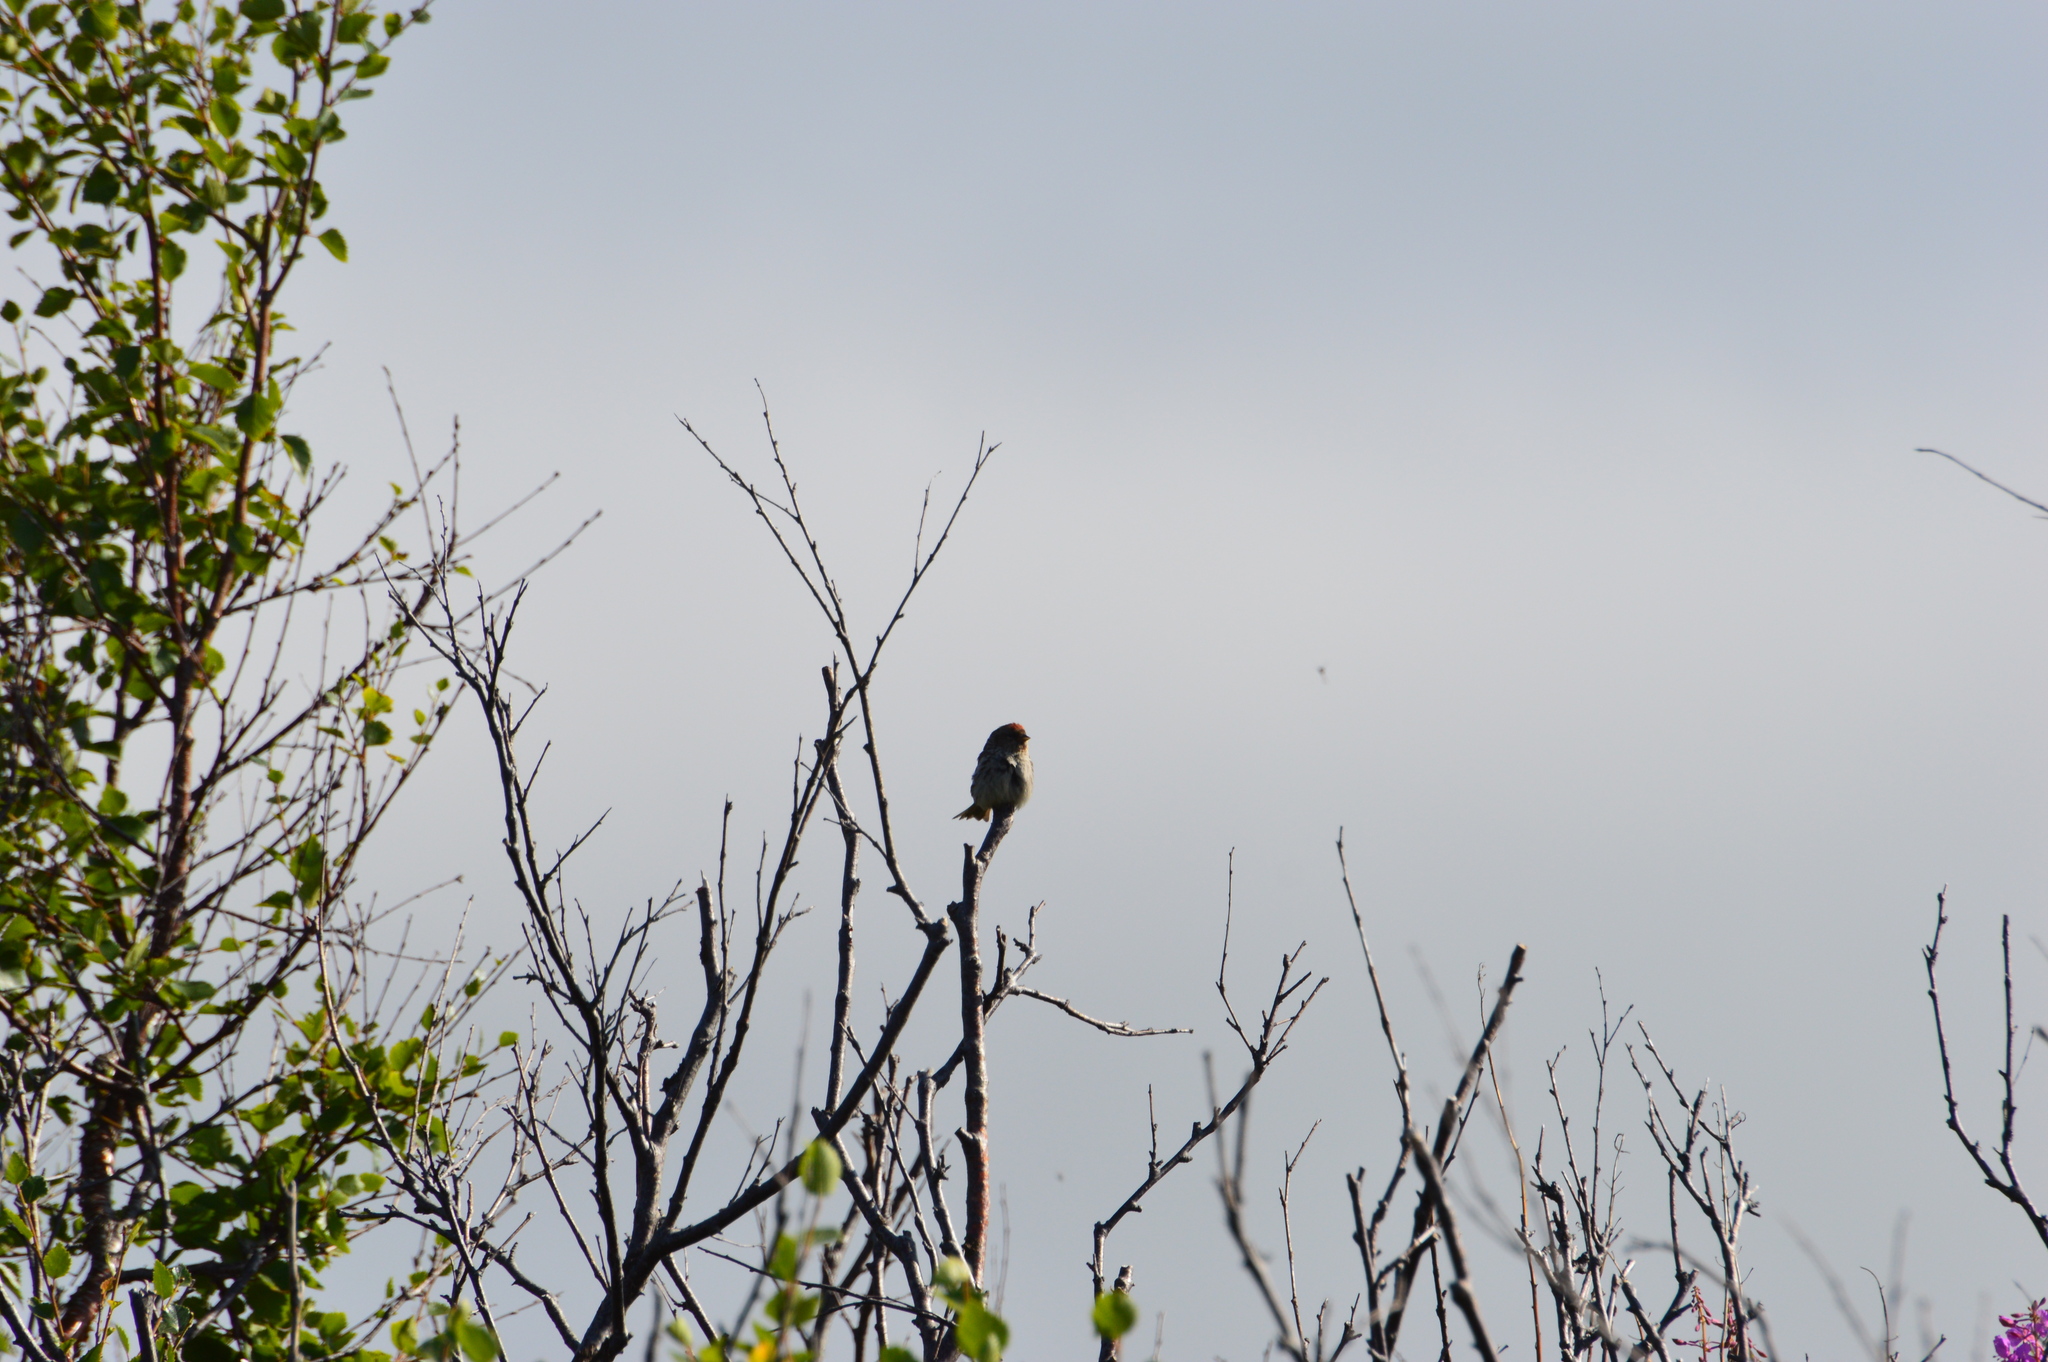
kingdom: Animalia
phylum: Chordata
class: Aves
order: Passeriformes
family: Fringillidae
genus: Acanthis
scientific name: Acanthis flammea
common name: Common redpoll
